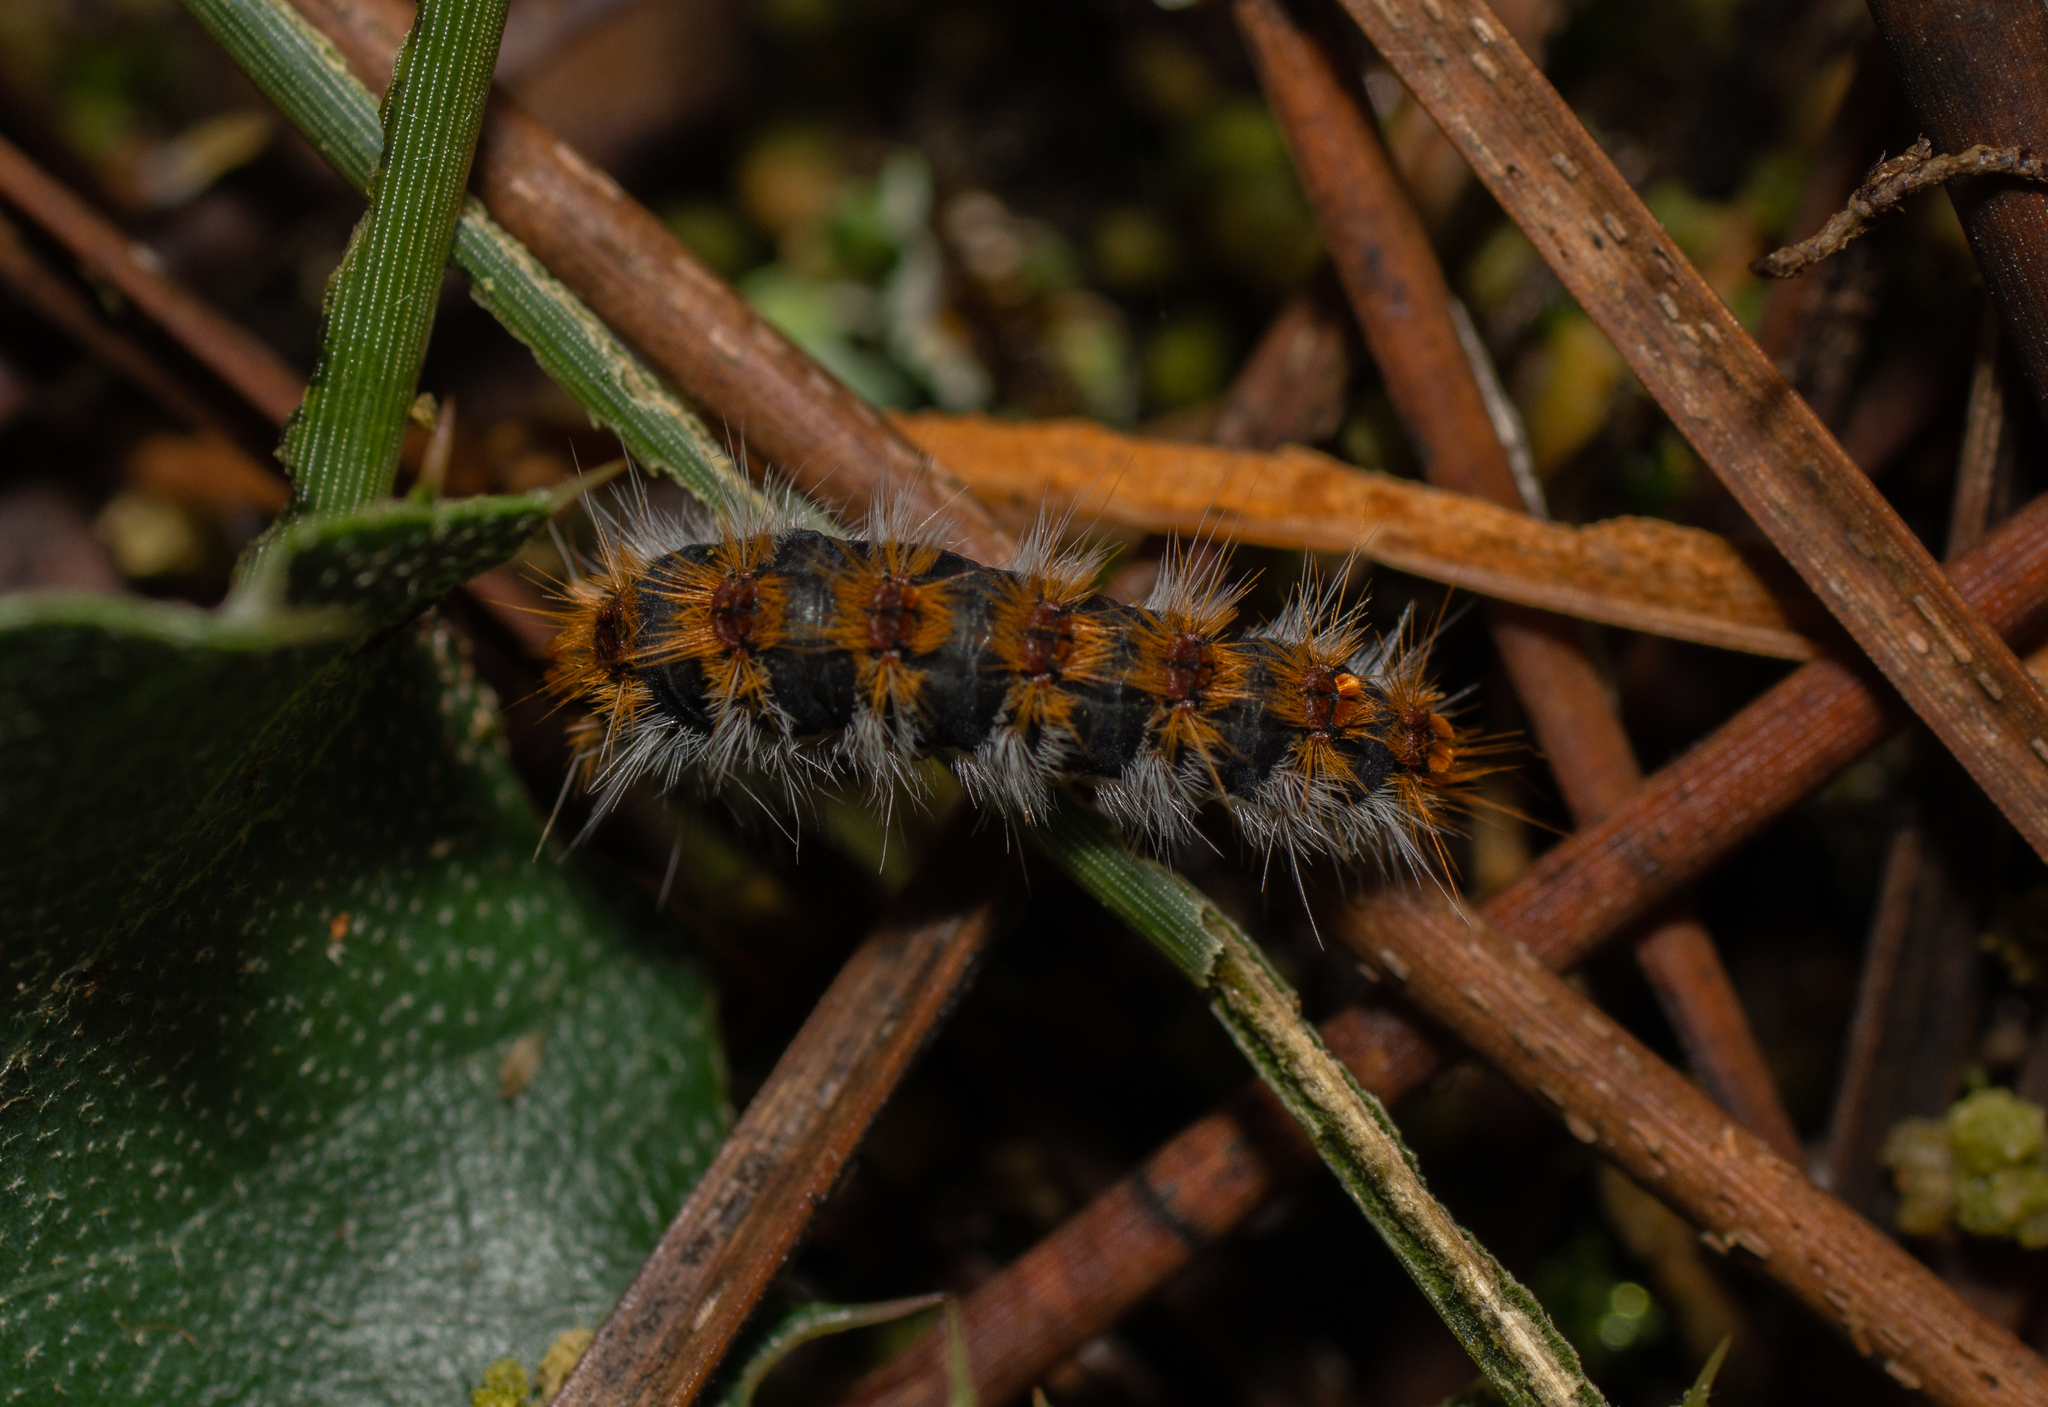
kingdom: Animalia
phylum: Arthropoda
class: Insecta
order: Lepidoptera
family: Notodontidae
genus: Thaumetopoea
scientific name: Thaumetopoea pityocampa
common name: Pine processionary
